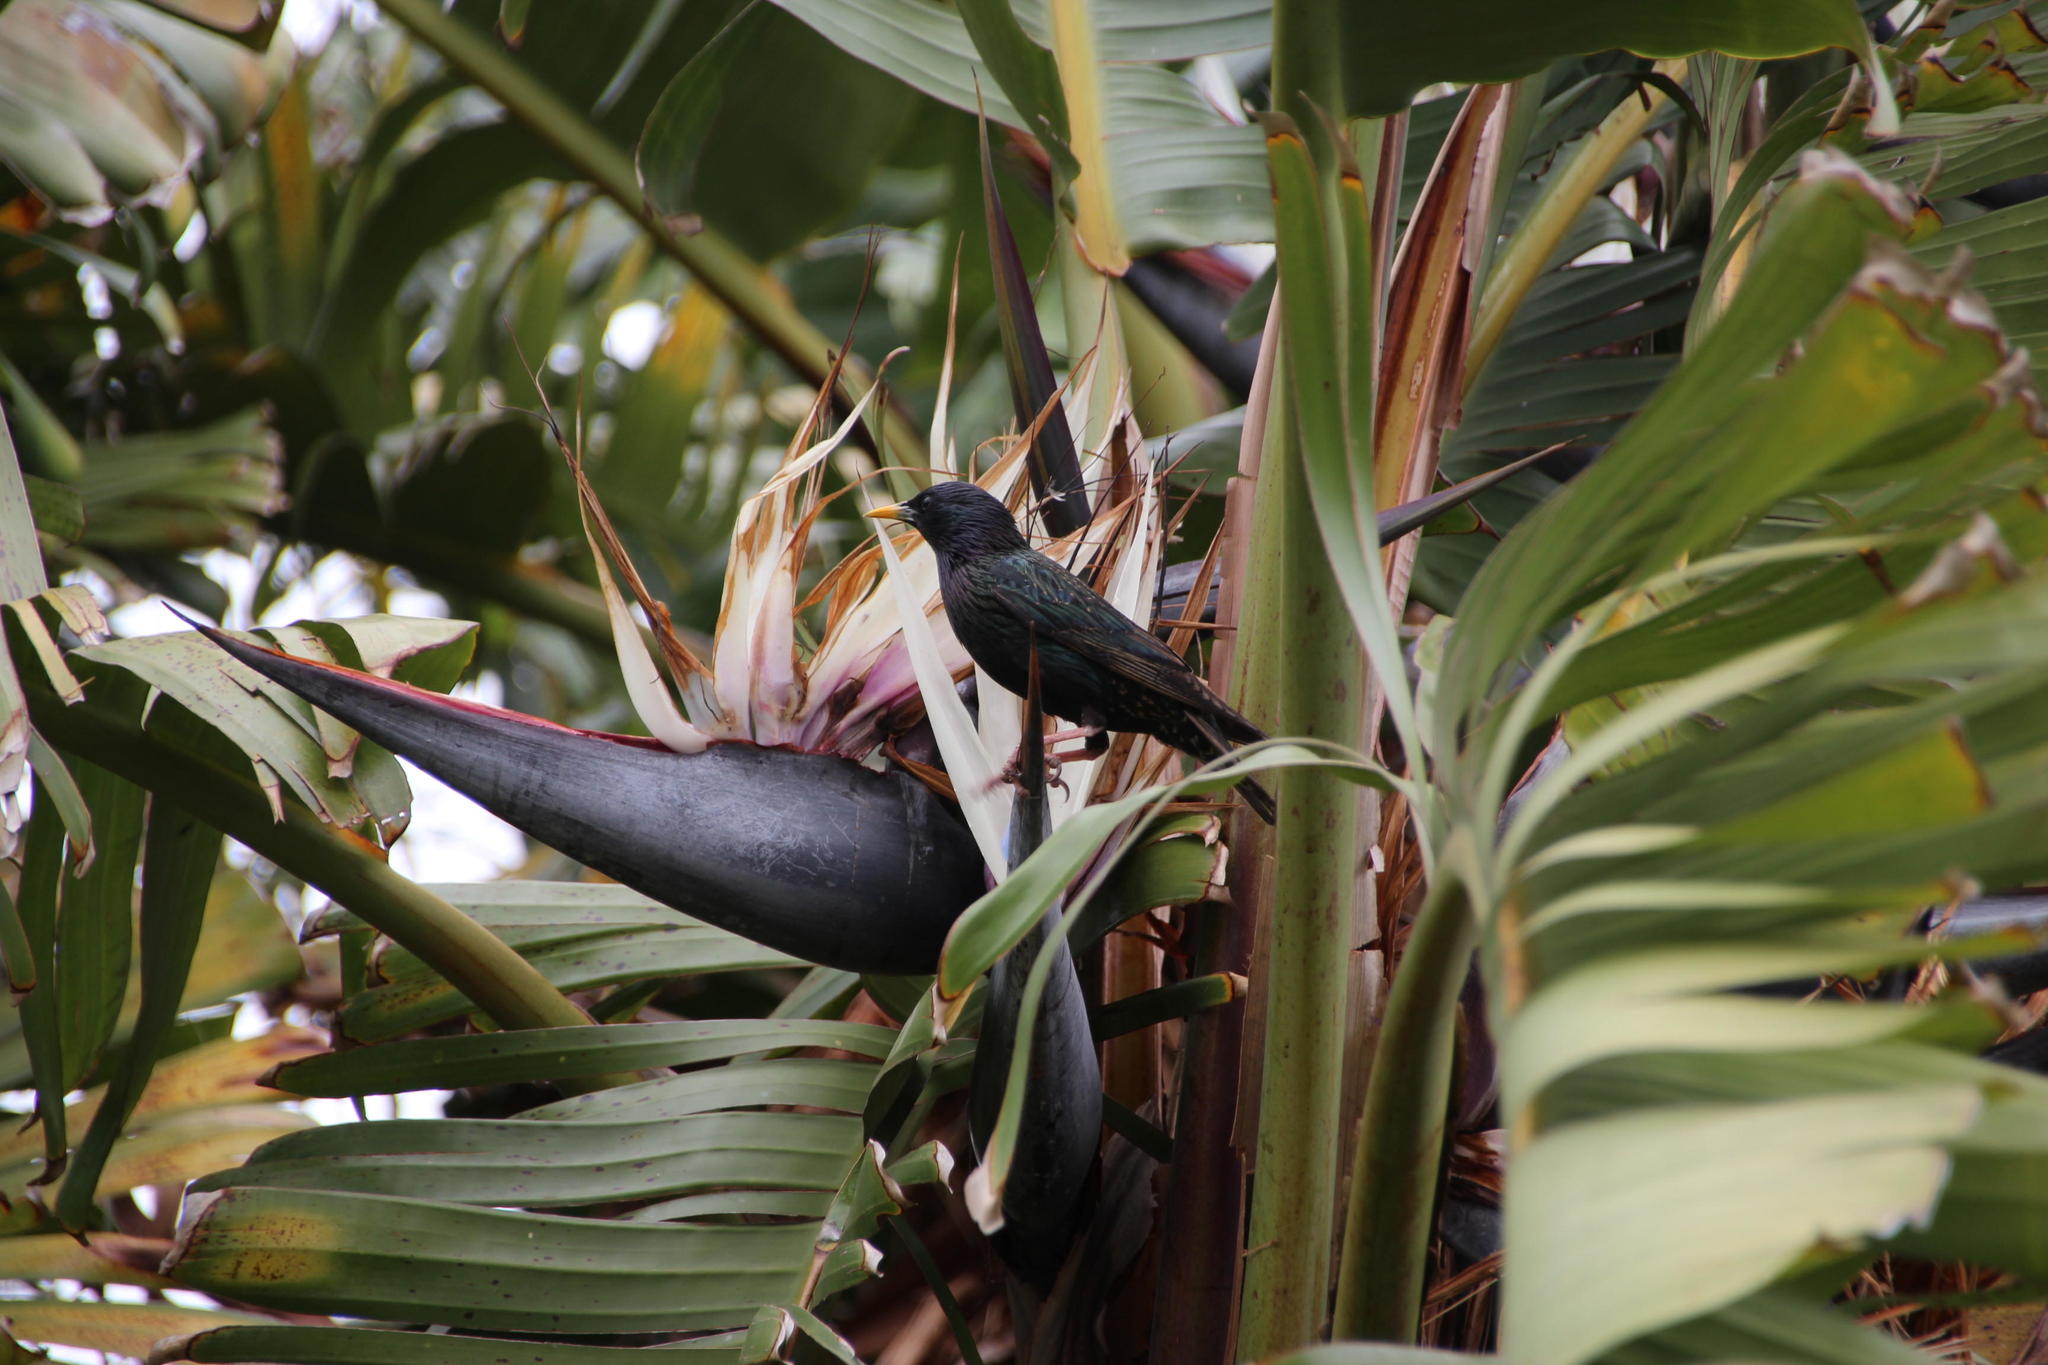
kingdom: Animalia
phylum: Chordata
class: Aves
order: Passeriformes
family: Sturnidae
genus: Sturnus
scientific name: Sturnus vulgaris
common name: Common starling
